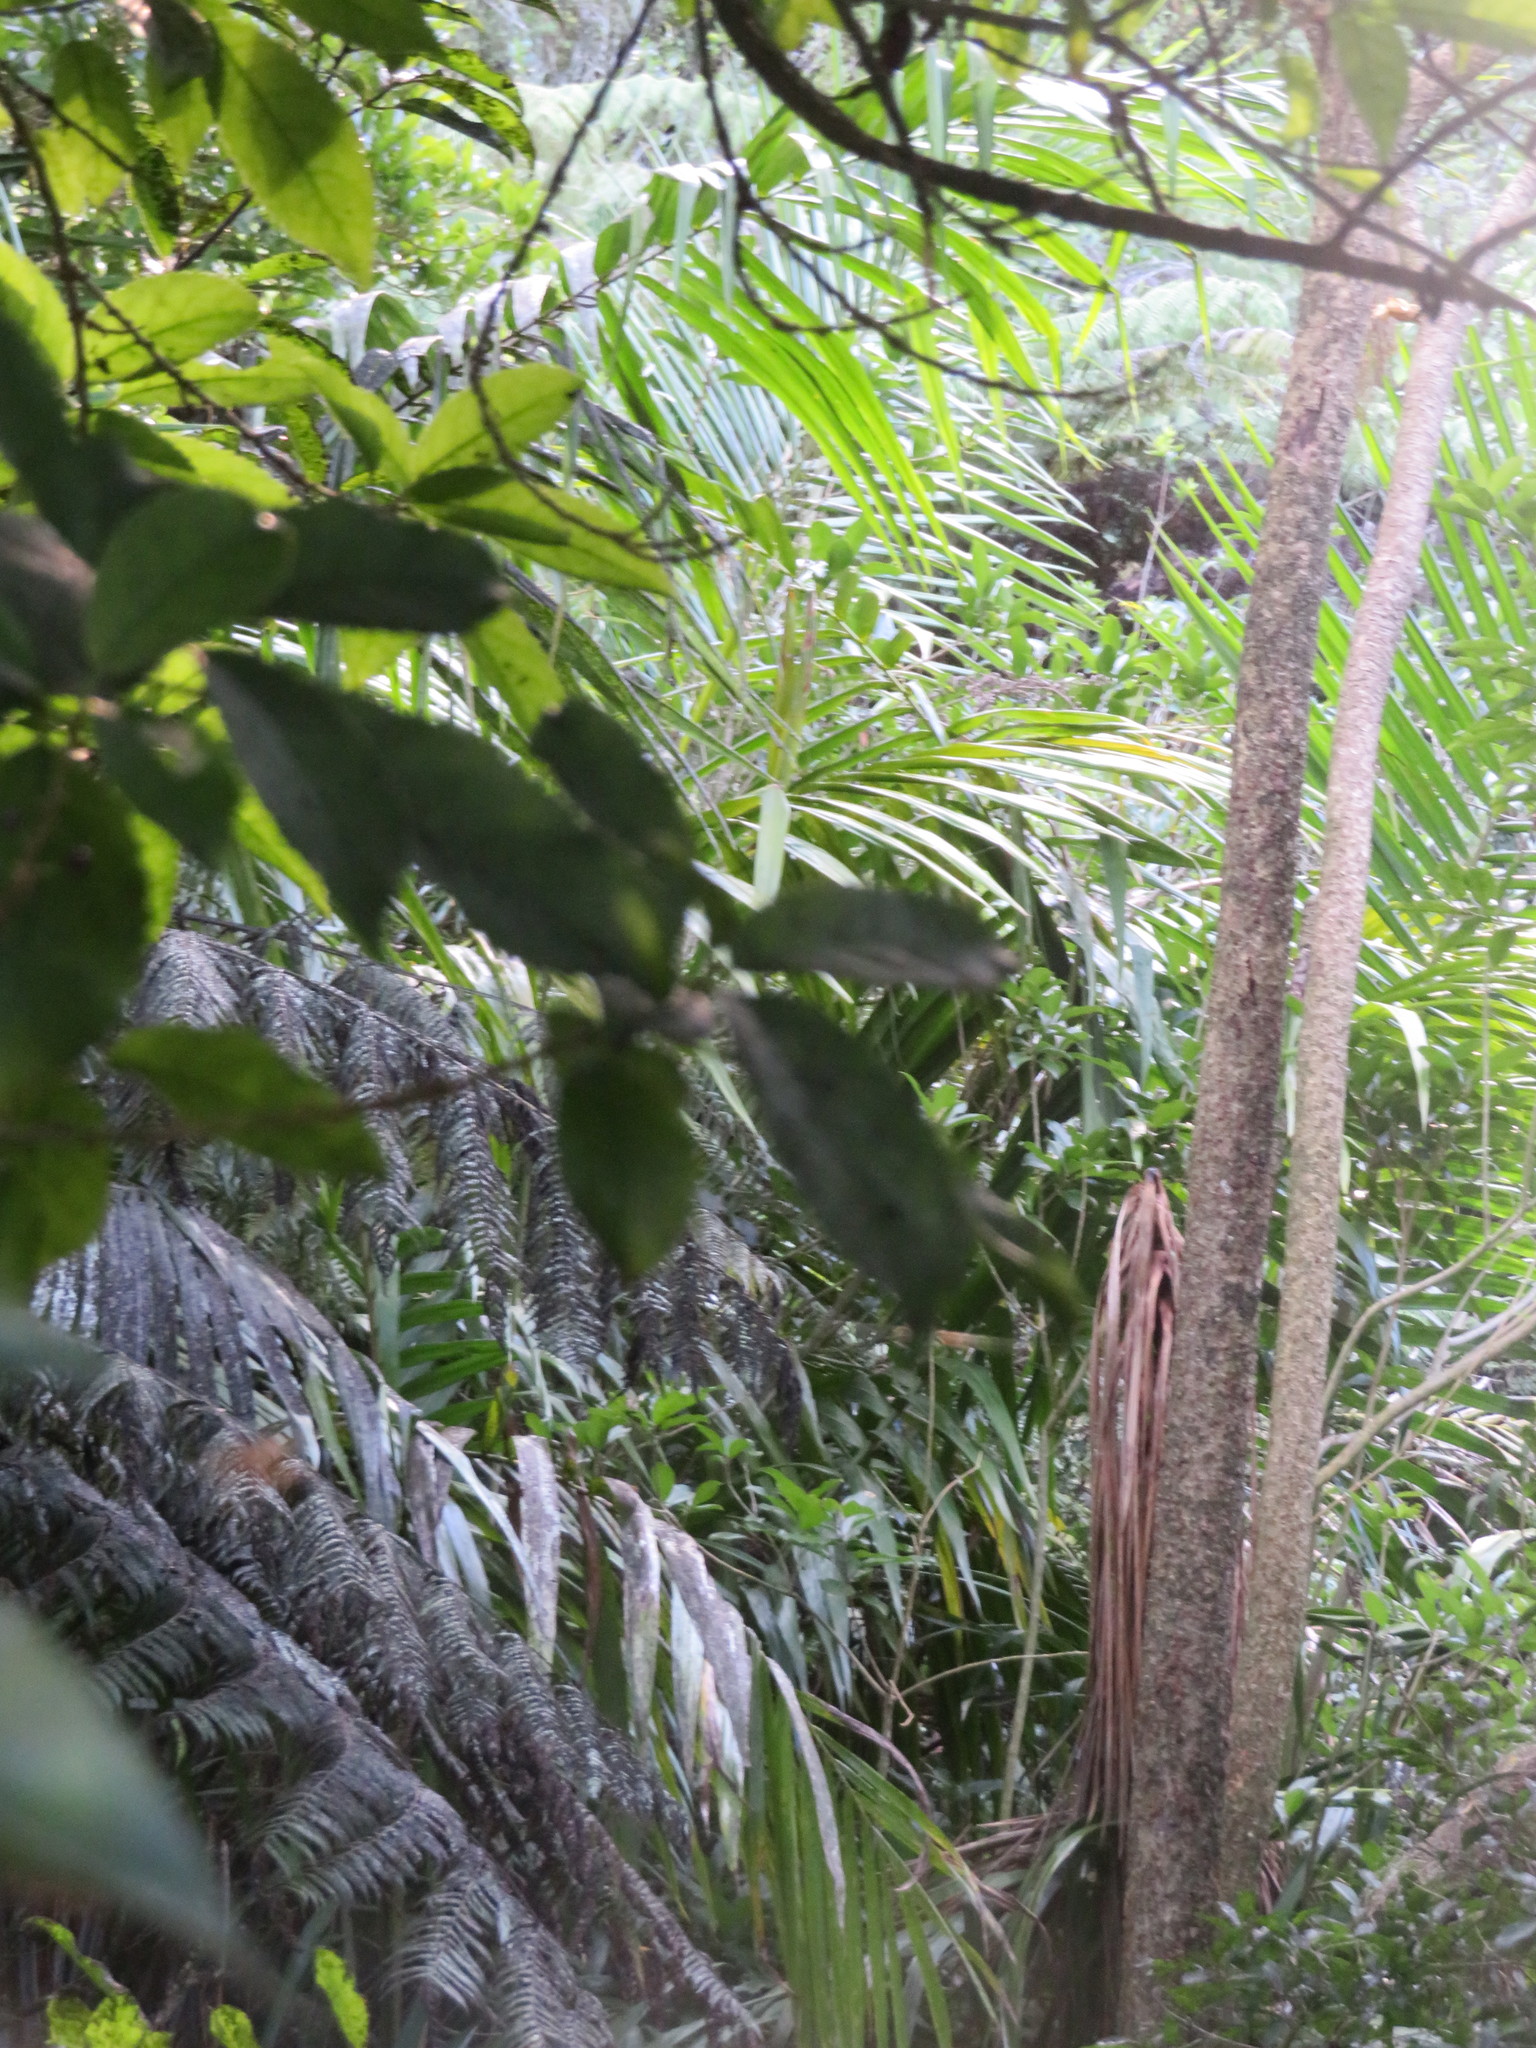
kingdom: Plantae
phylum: Tracheophyta
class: Liliopsida
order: Arecales
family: Arecaceae
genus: Archontophoenix
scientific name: Archontophoenix cunninghamiana
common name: Piccabeen bangalow palm
